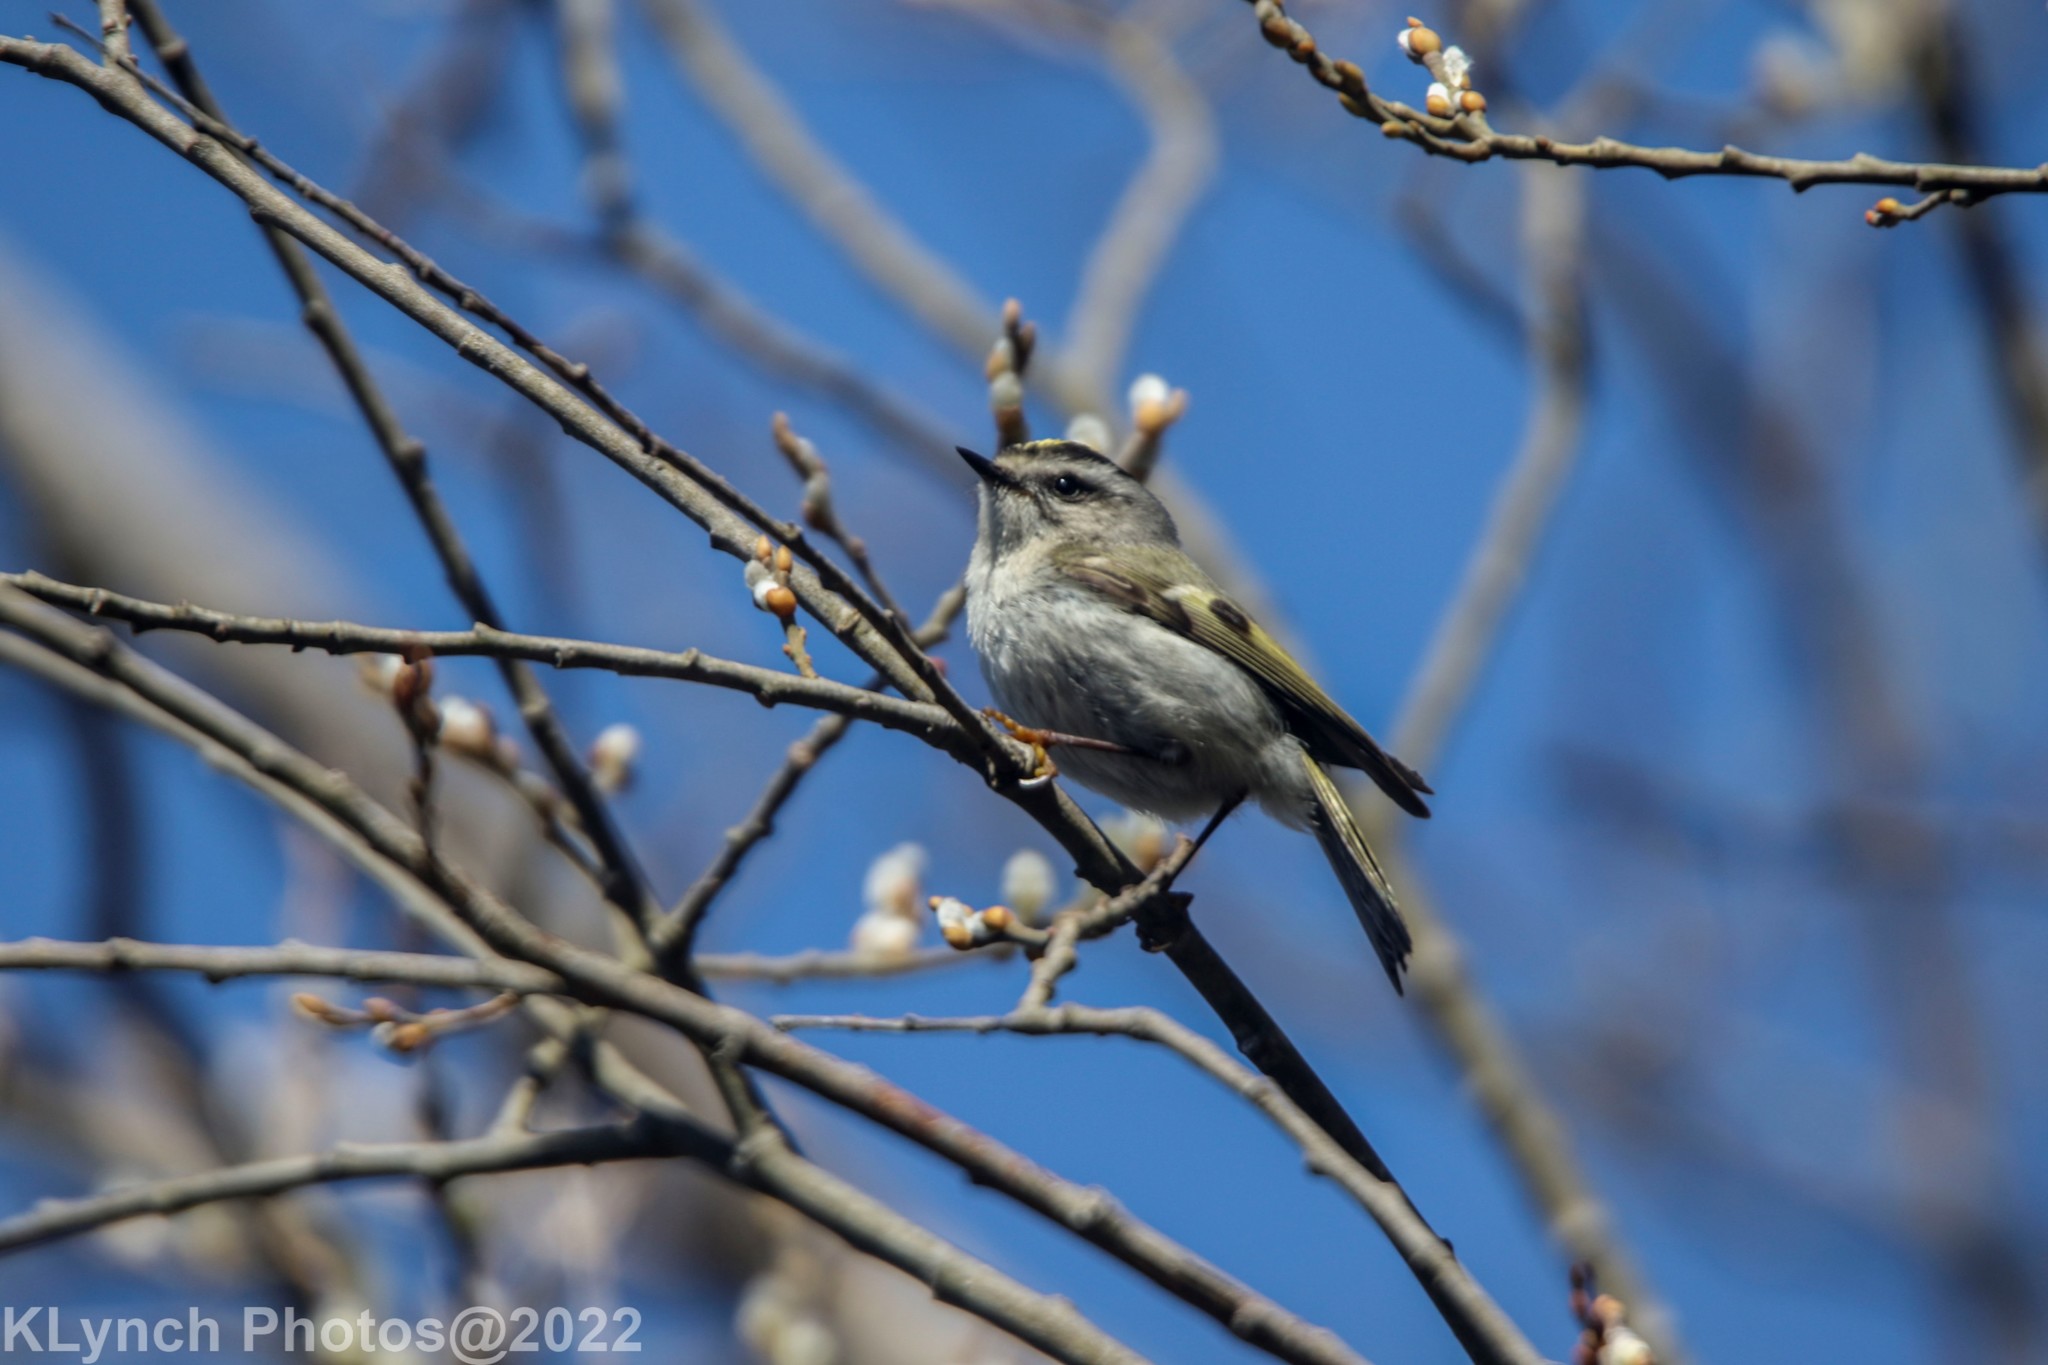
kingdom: Animalia
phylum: Chordata
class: Aves
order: Passeriformes
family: Regulidae
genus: Regulus
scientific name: Regulus satrapa
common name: Golden-crowned kinglet
